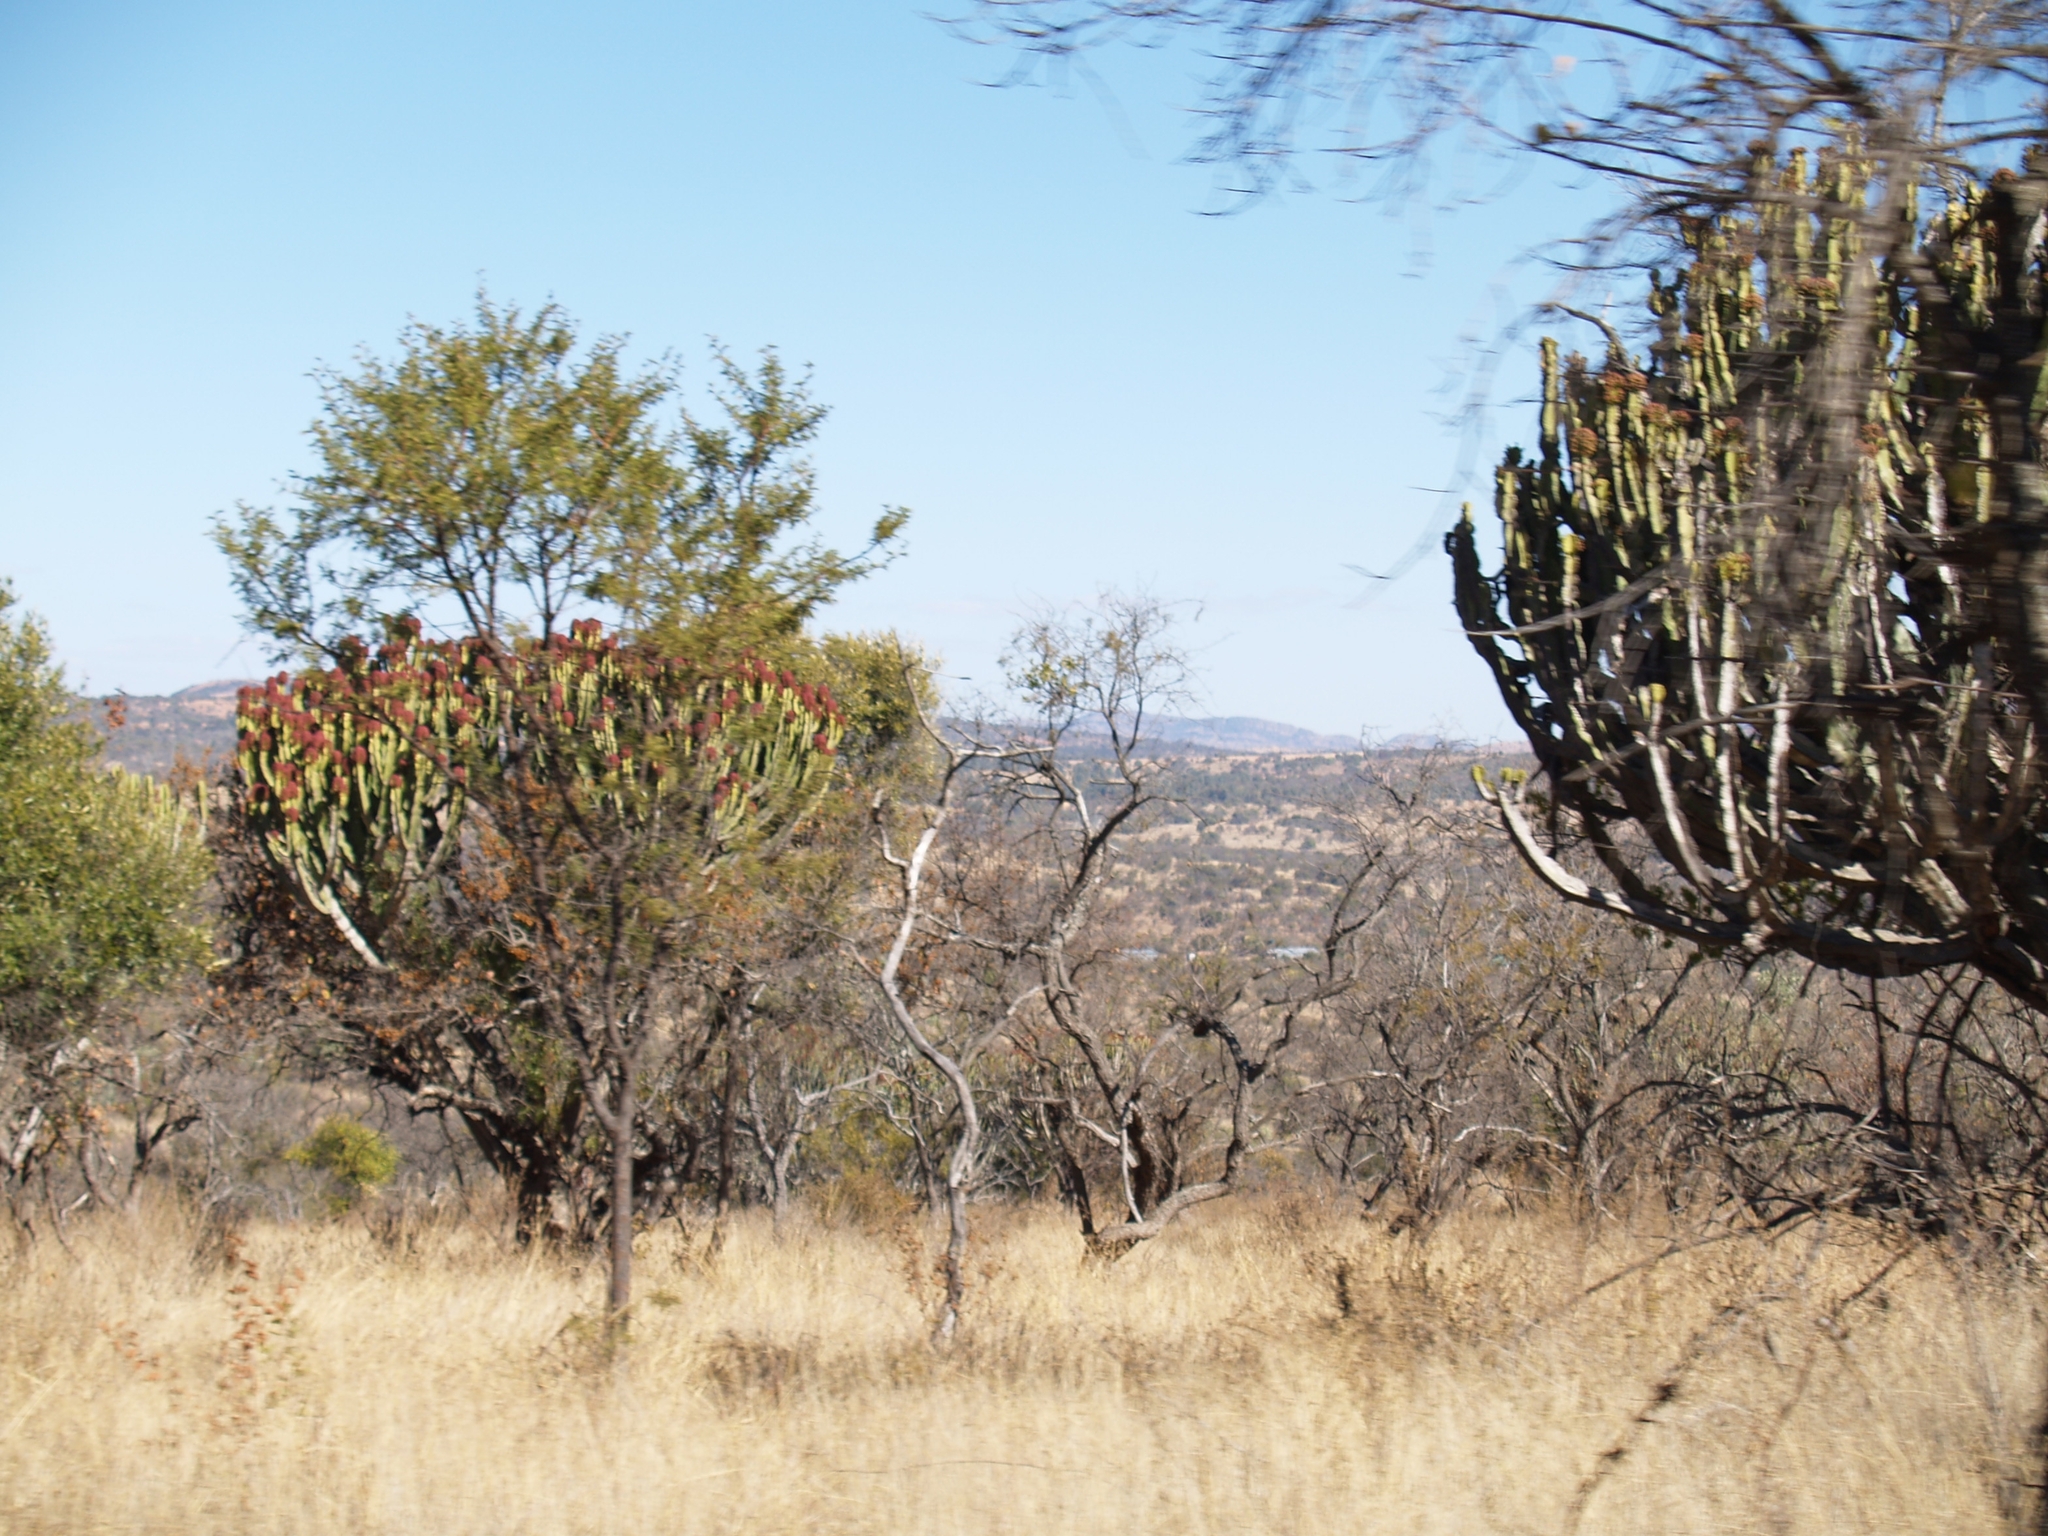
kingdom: Plantae
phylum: Tracheophyta
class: Magnoliopsida
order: Malpighiales
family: Euphorbiaceae
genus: Euphorbia
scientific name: Euphorbia ingens
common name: Cactus spurge
